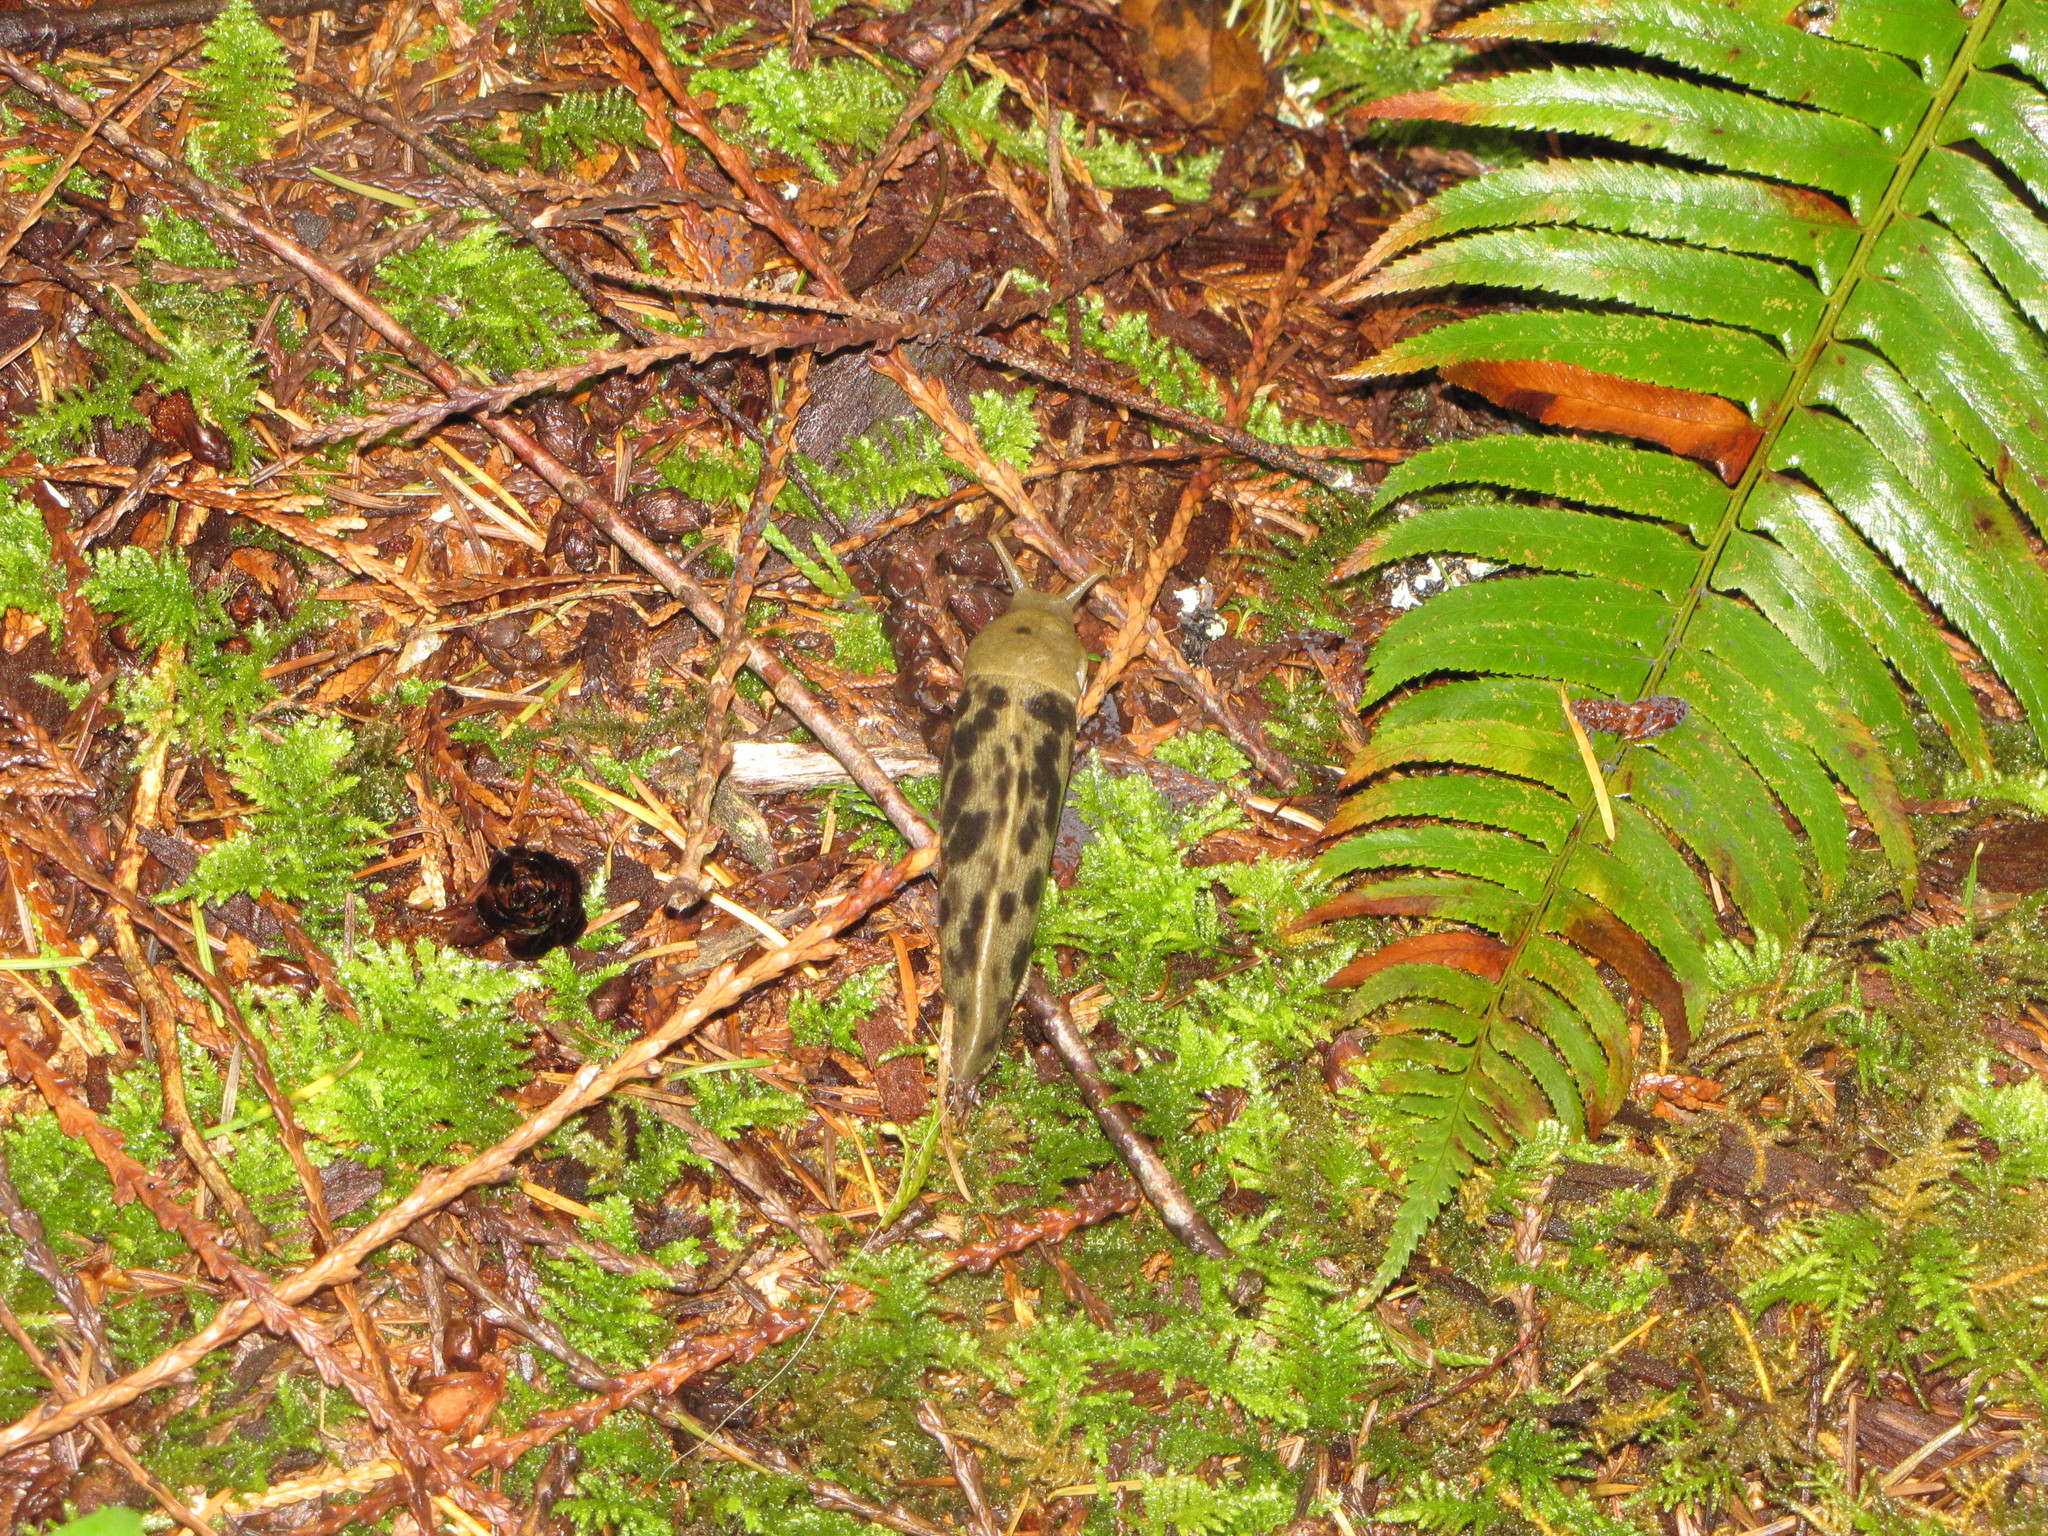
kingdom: Animalia
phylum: Mollusca
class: Gastropoda
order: Stylommatophora
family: Ariolimacidae
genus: Ariolimax
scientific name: Ariolimax columbianus
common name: Pacific banana slug
